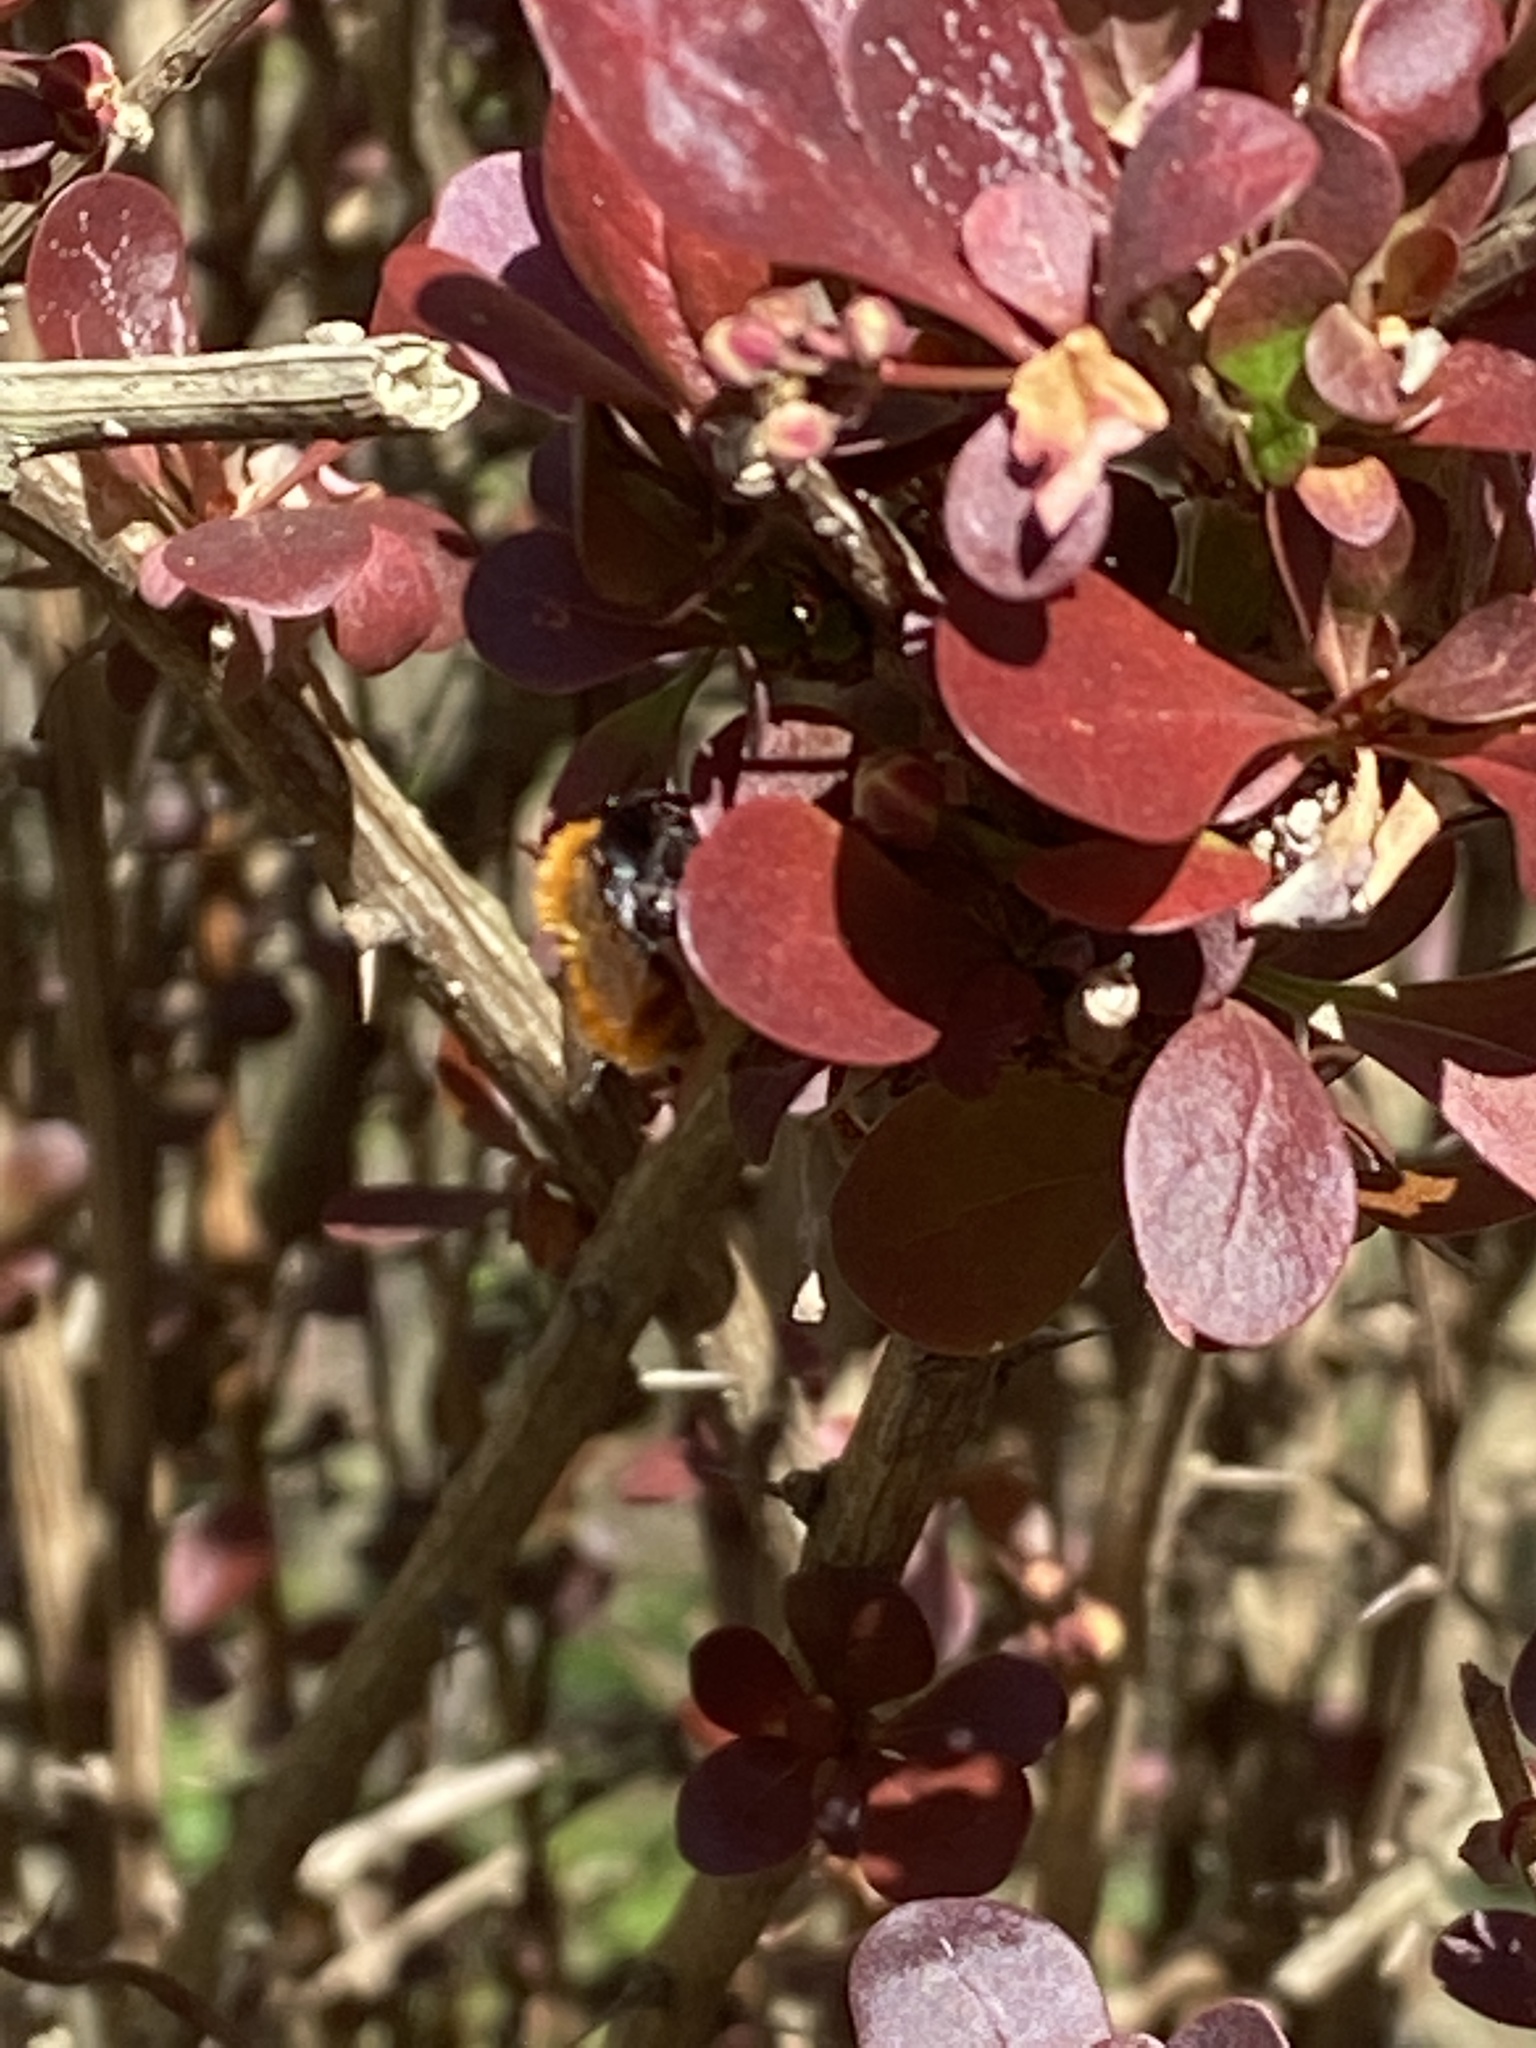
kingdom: Animalia
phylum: Arthropoda
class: Insecta
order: Hymenoptera
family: Andrenidae
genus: Andrena
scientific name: Andrena fulva
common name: Tawny mining bee
